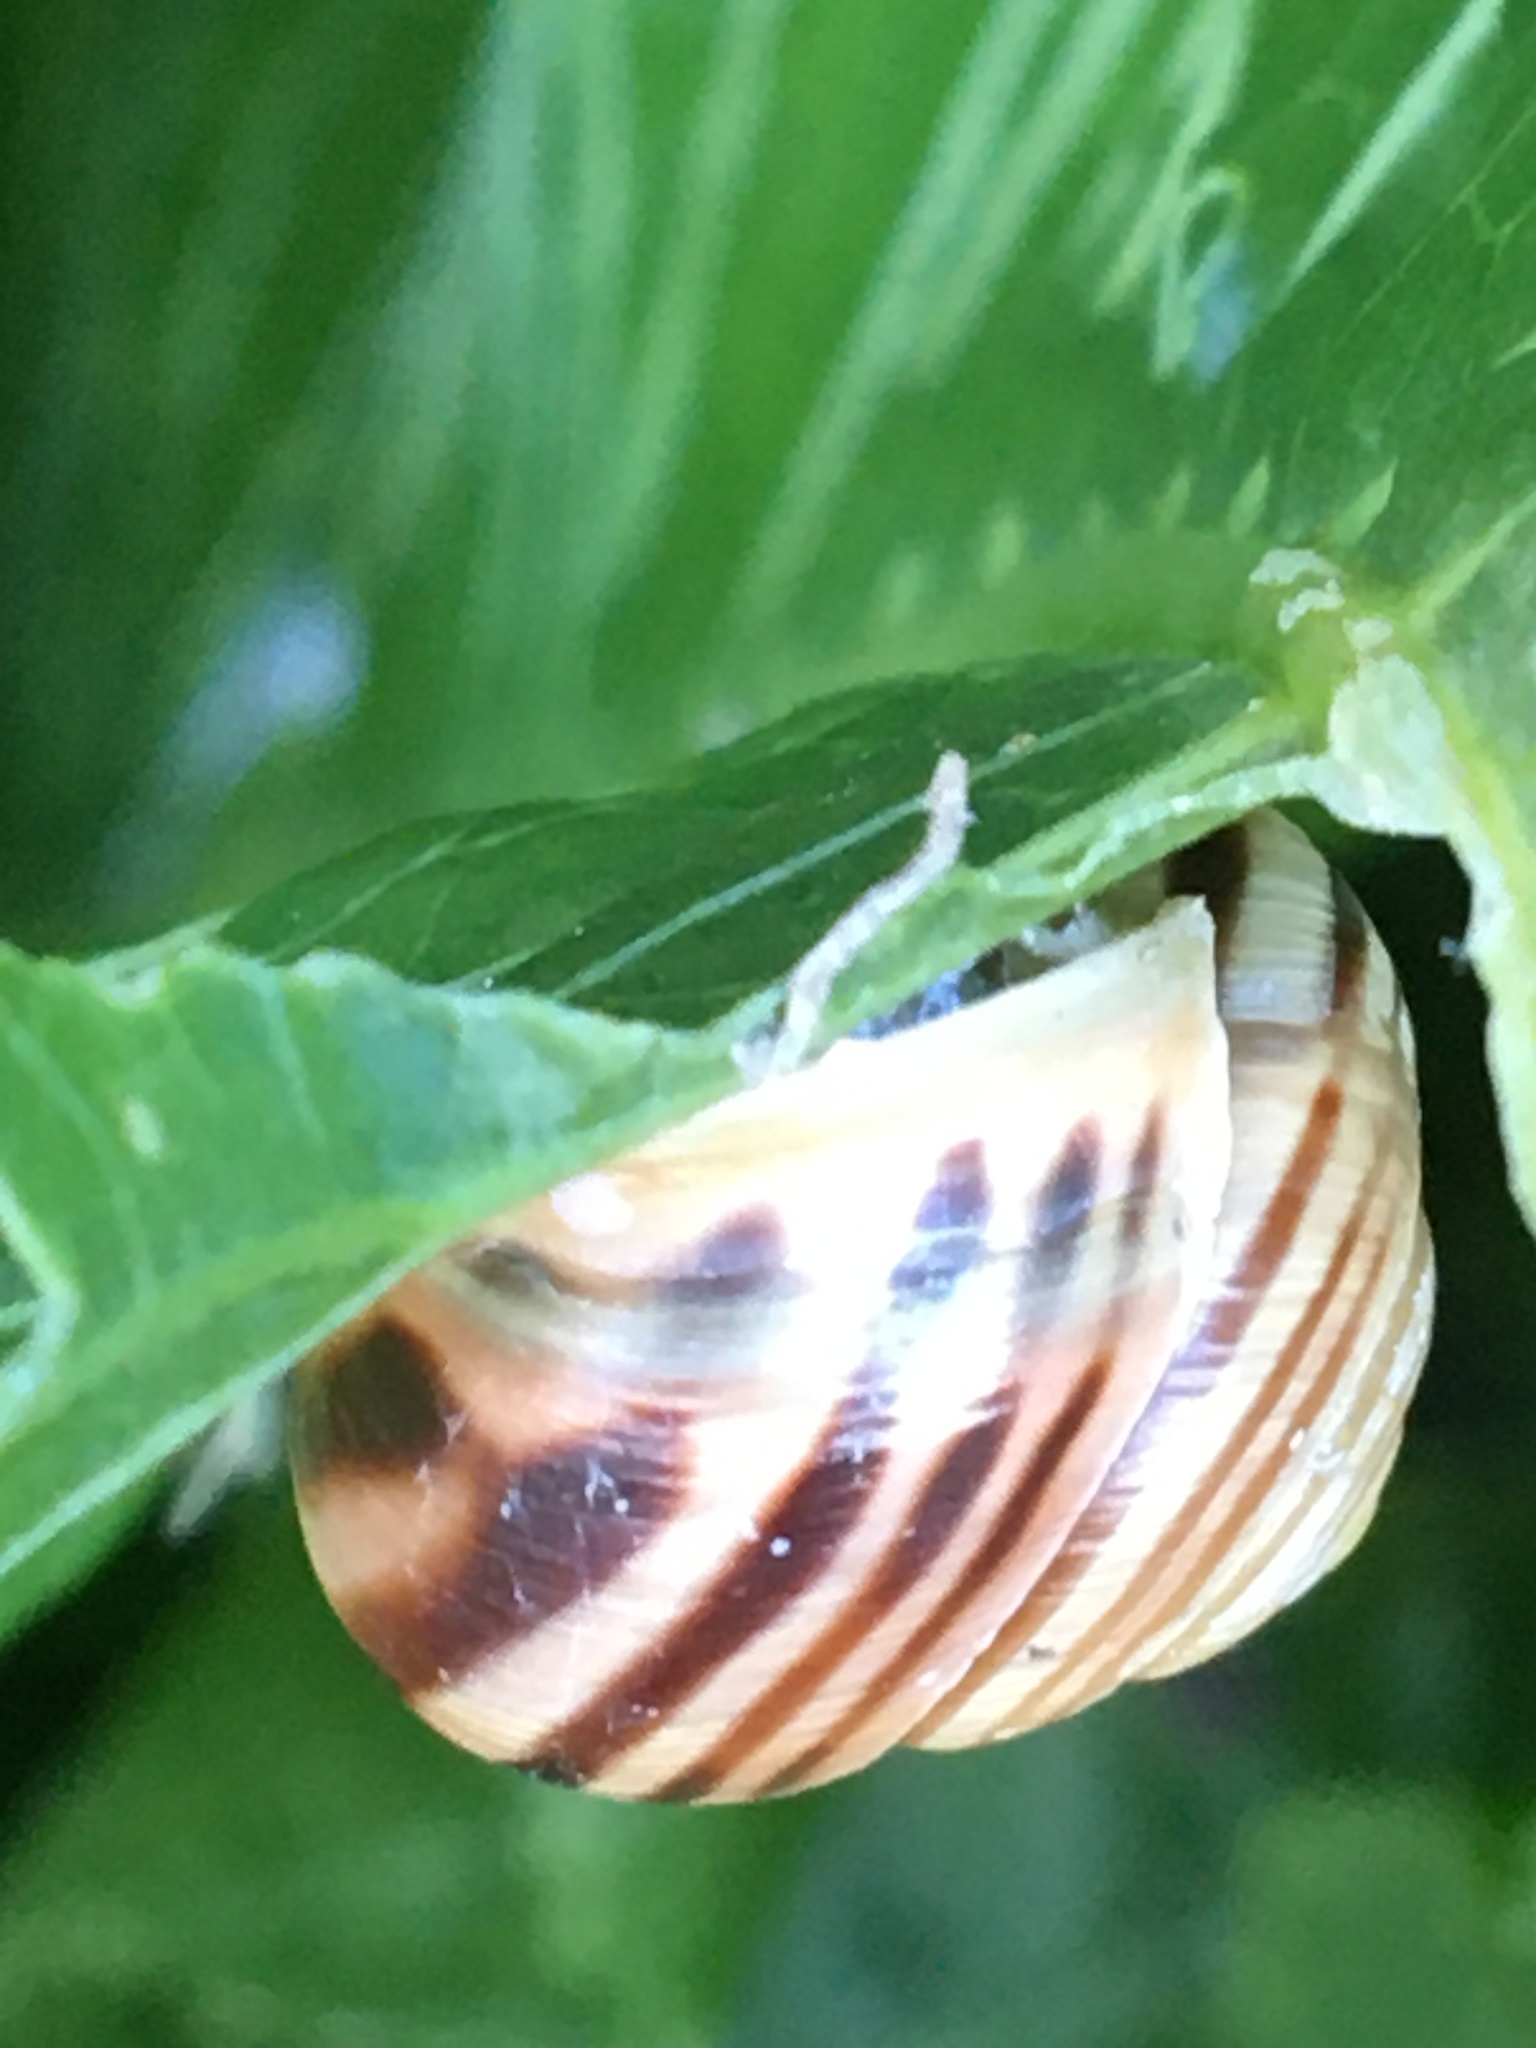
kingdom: Animalia
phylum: Mollusca
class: Gastropoda
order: Stylommatophora
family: Helicidae
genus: Cepaea
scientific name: Cepaea hortensis
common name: White-lip gardensnail
